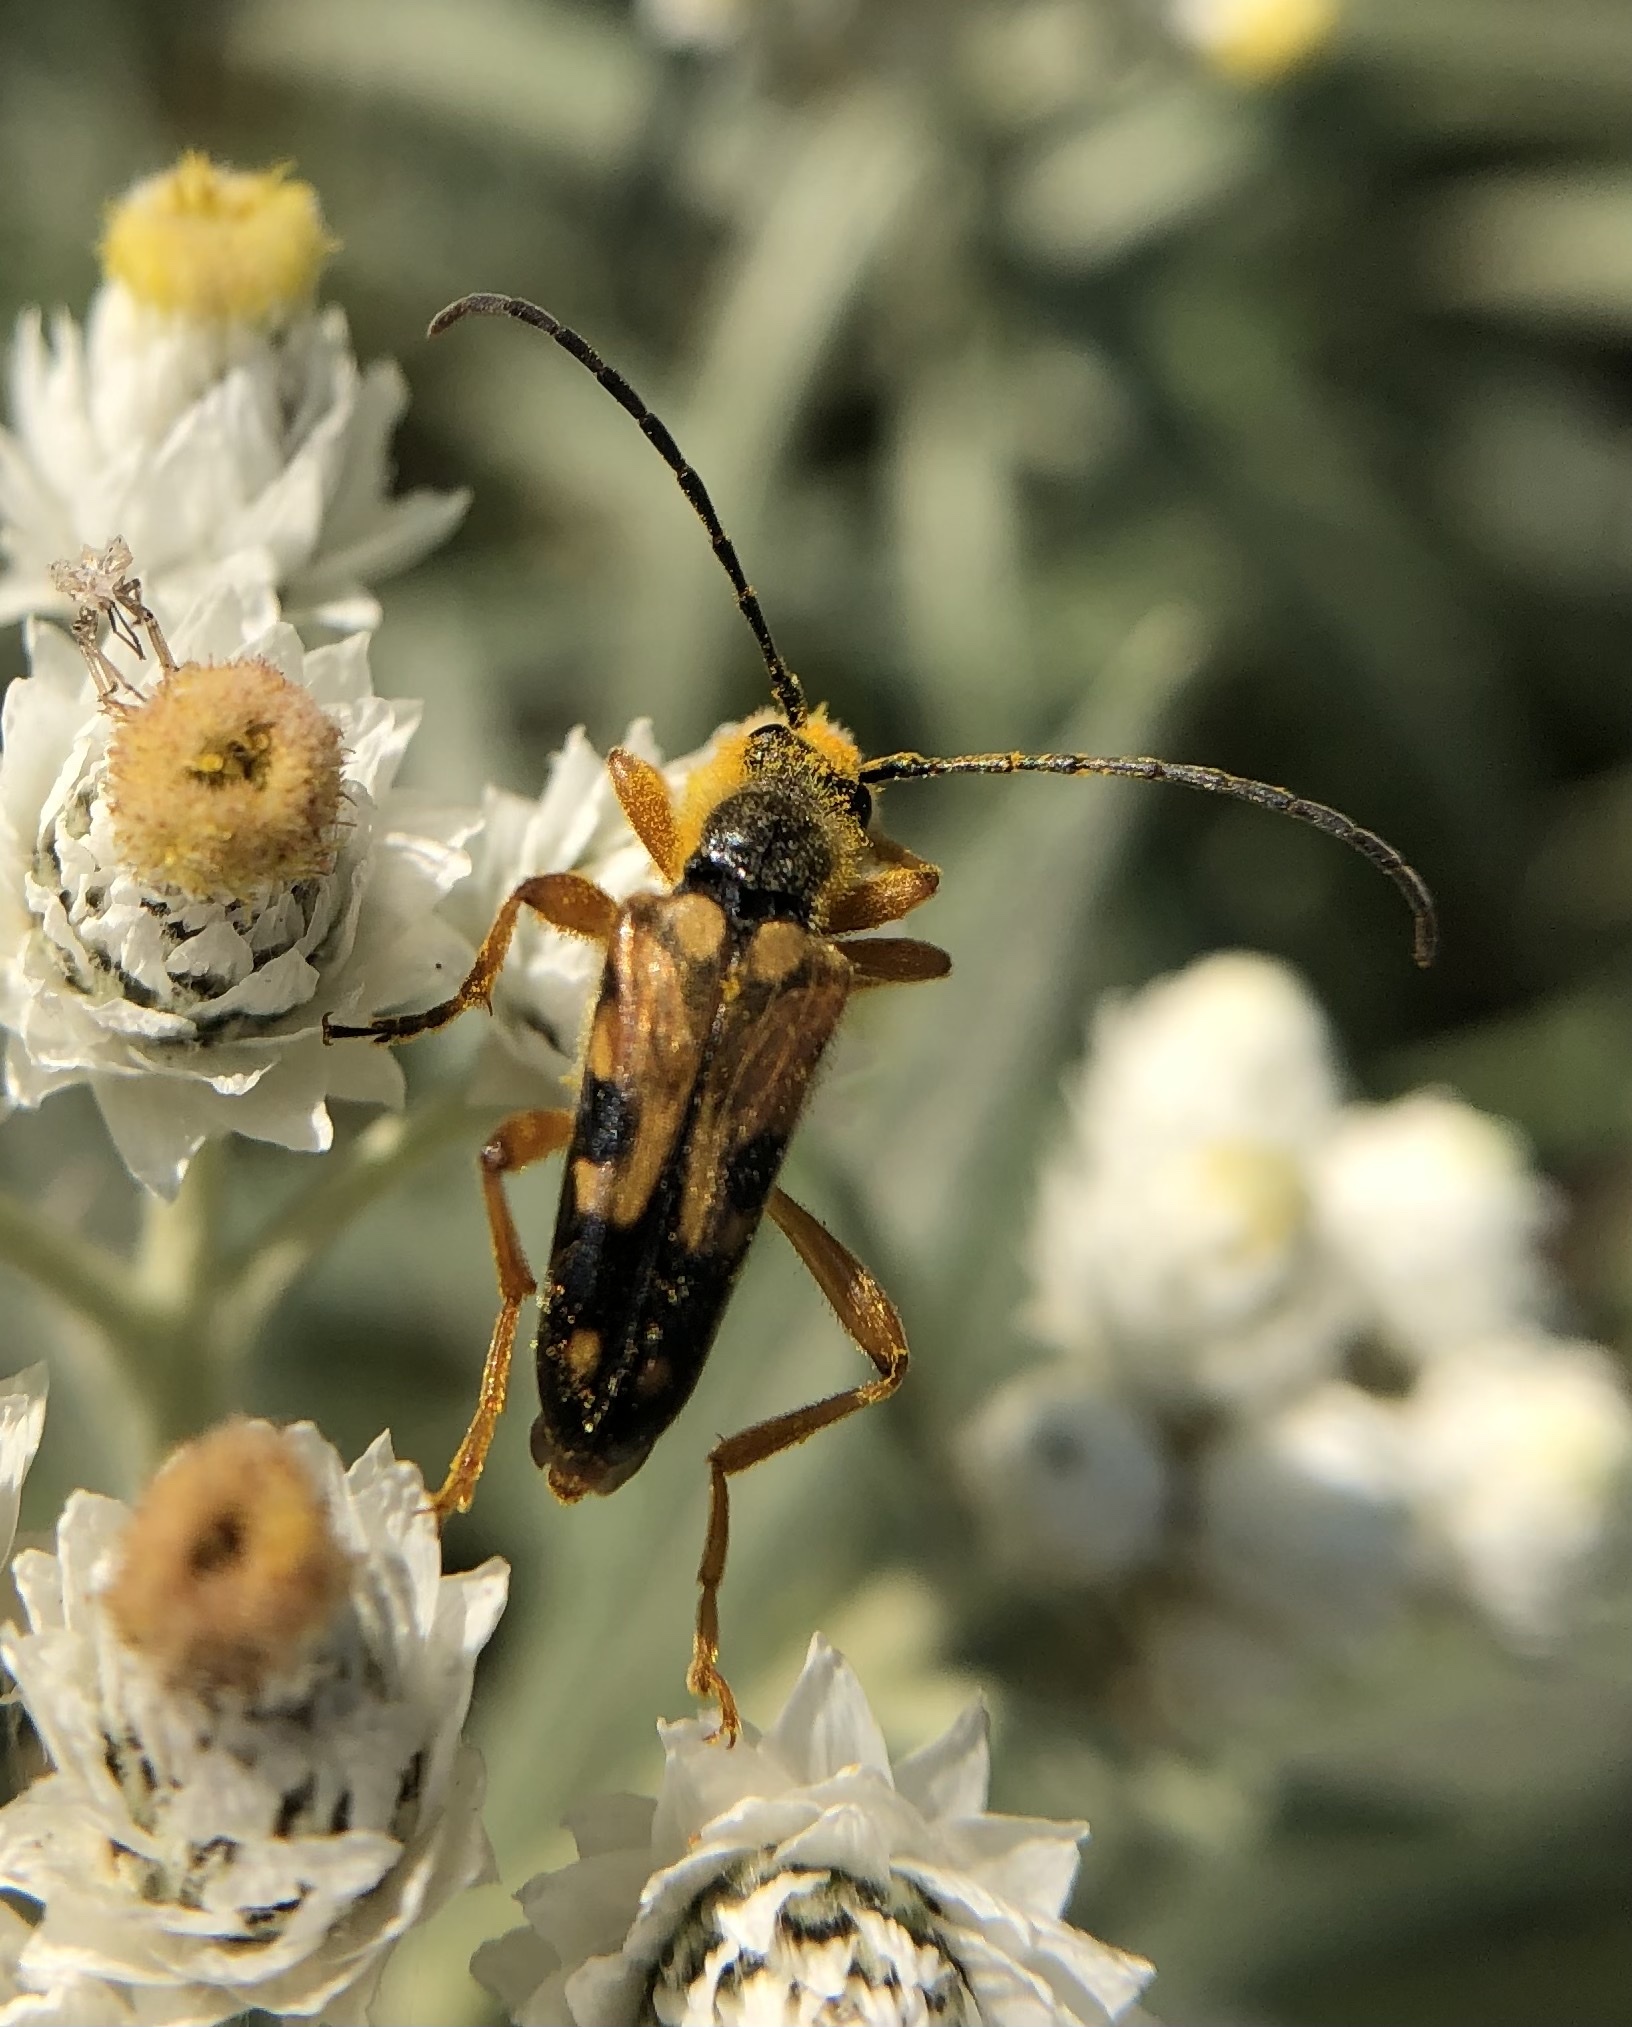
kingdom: Animalia
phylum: Arthropoda
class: Insecta
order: Coleoptera
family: Cerambycidae
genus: Xestoleptura
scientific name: Xestoleptura crassipes
